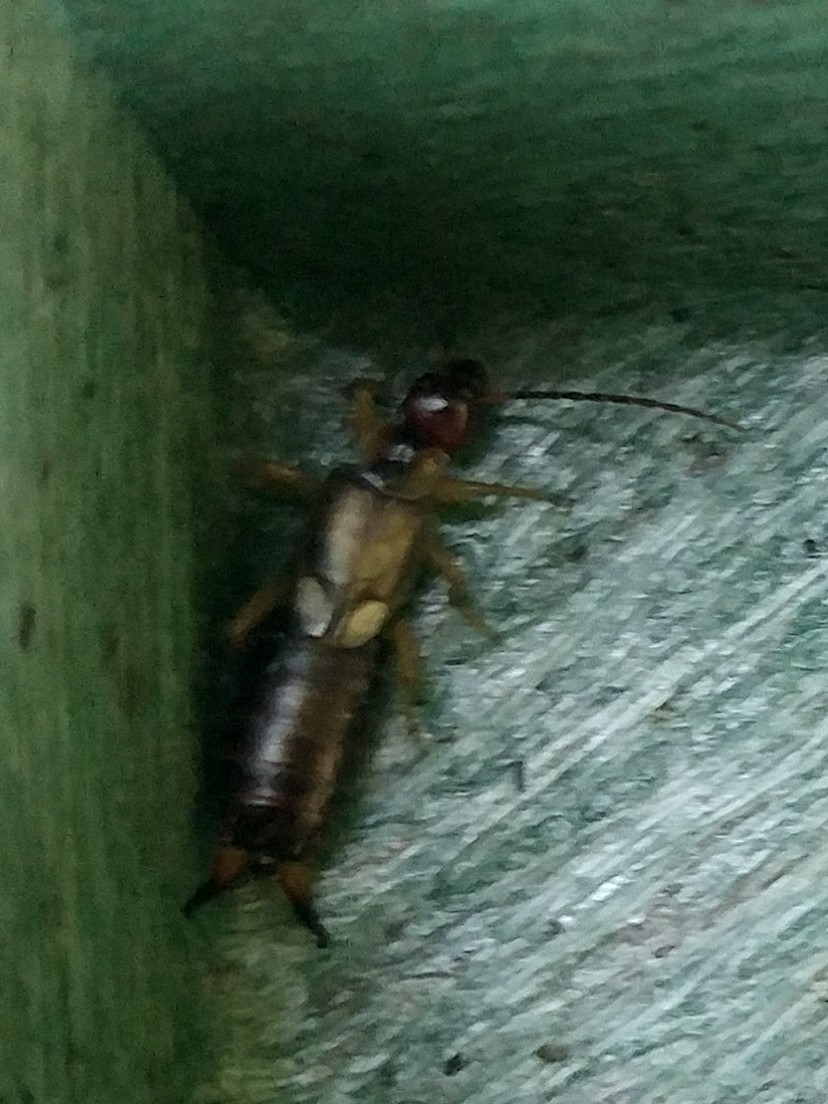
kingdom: Animalia
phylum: Arthropoda
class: Insecta
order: Dermaptera
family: Forficulidae
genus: Forficula
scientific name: Forficula
